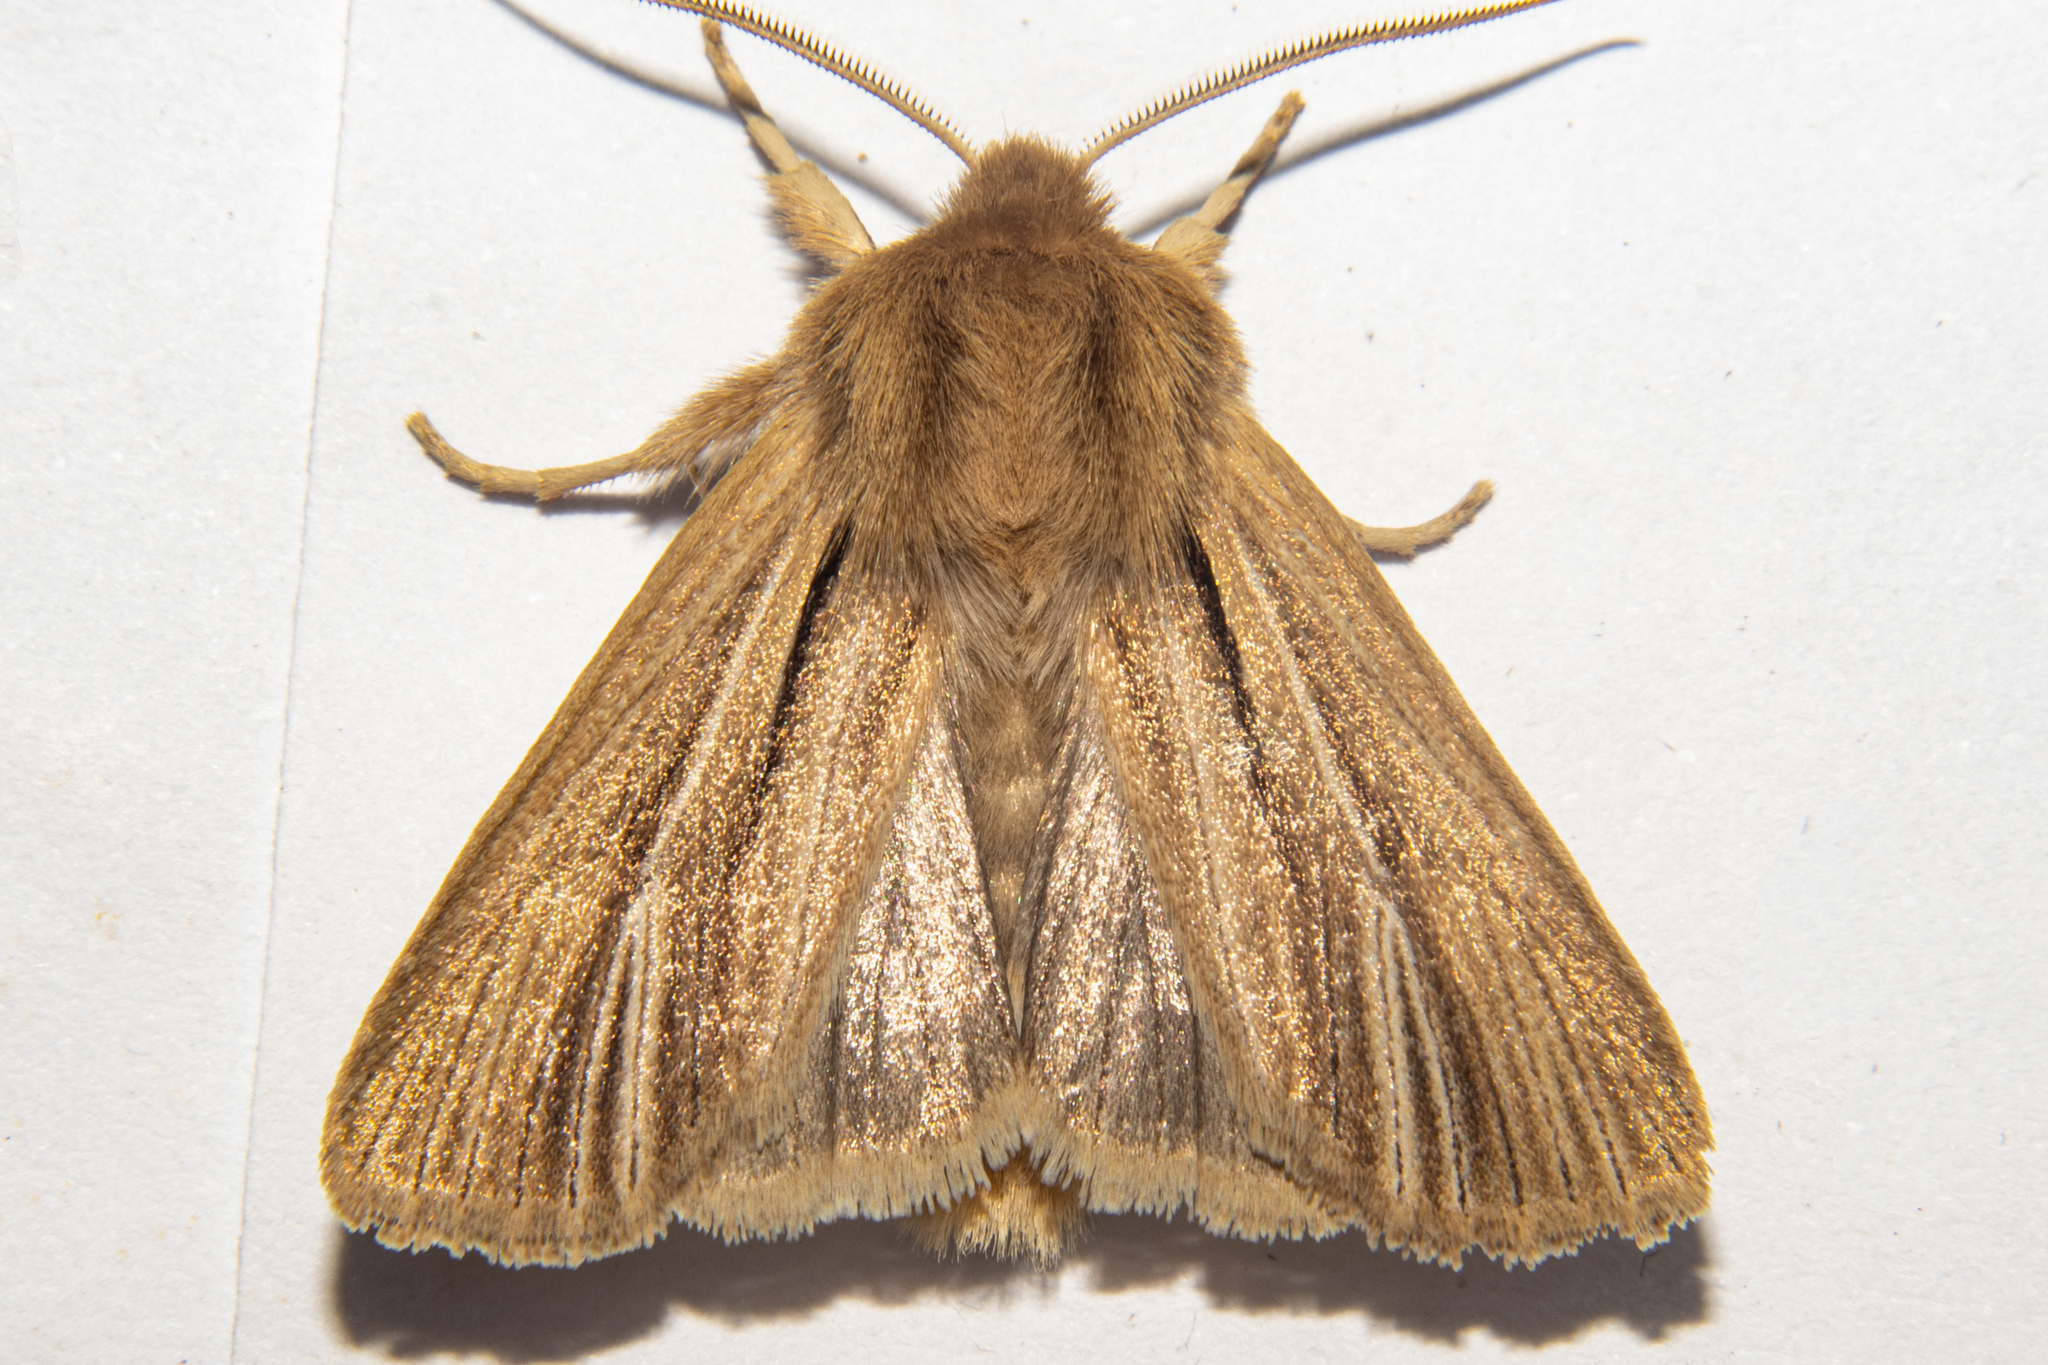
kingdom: Animalia
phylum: Arthropoda
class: Insecta
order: Lepidoptera
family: Noctuidae
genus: Ichneutica
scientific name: Ichneutica
